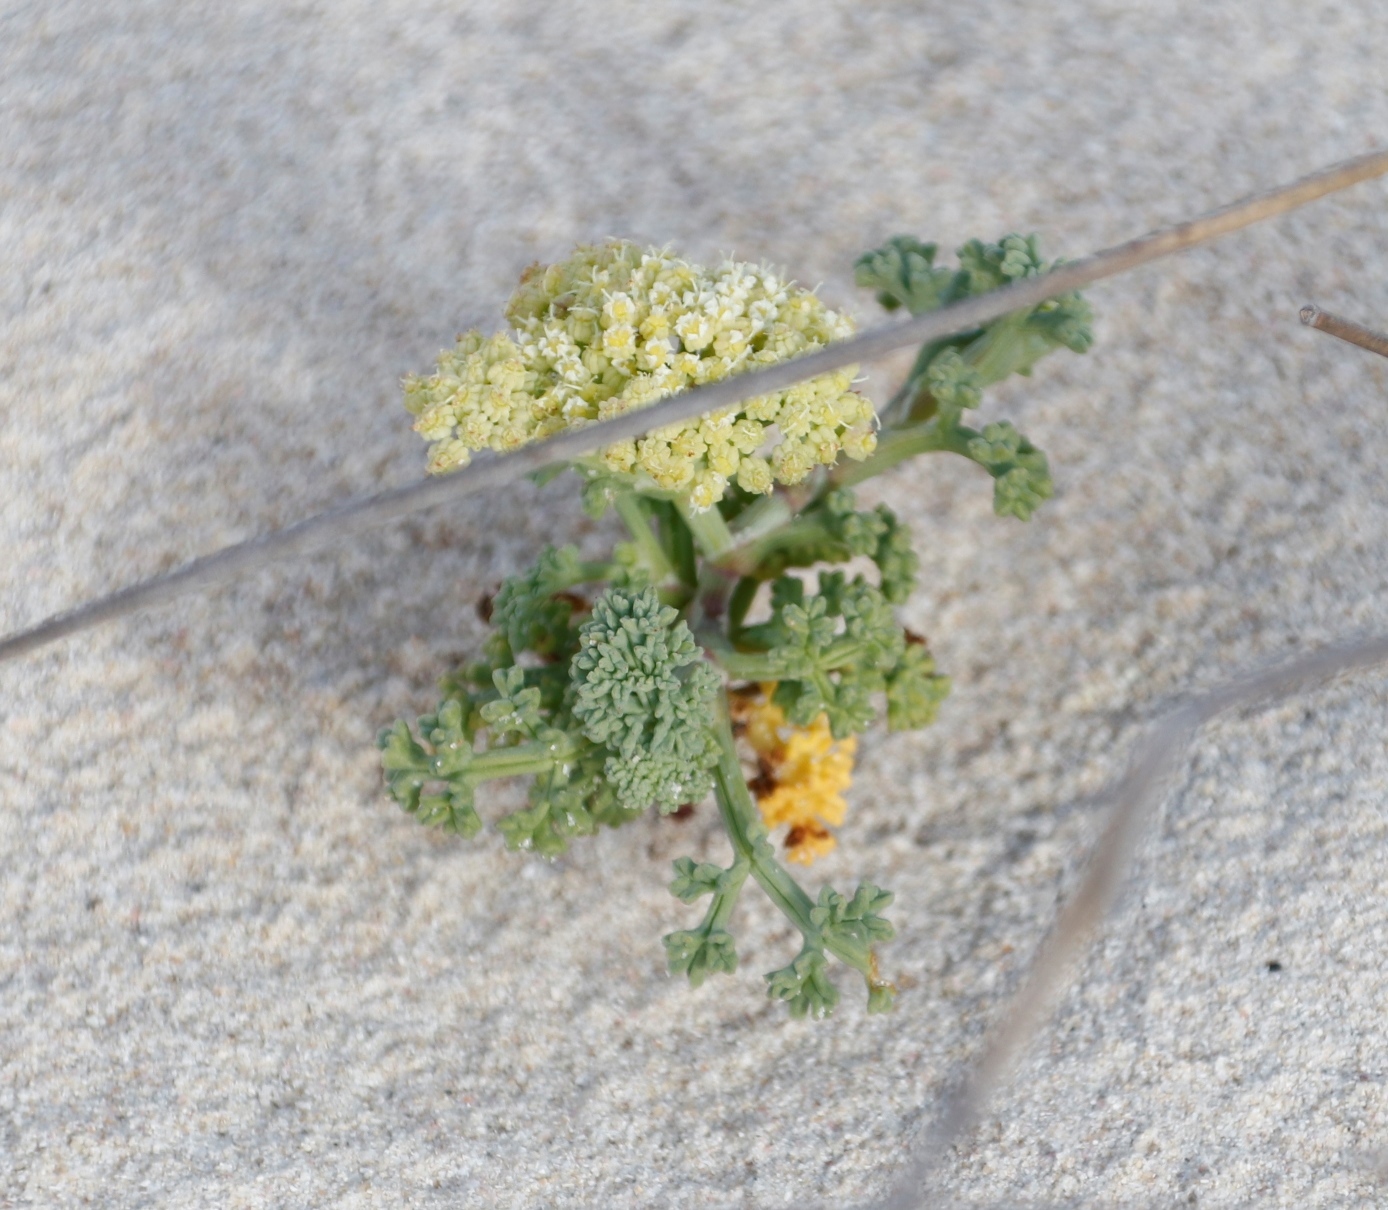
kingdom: Plantae
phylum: Tracheophyta
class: Magnoliopsida
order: Apiales
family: Apiaceae
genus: Dasispermum
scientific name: Dasispermum suffruticosum
